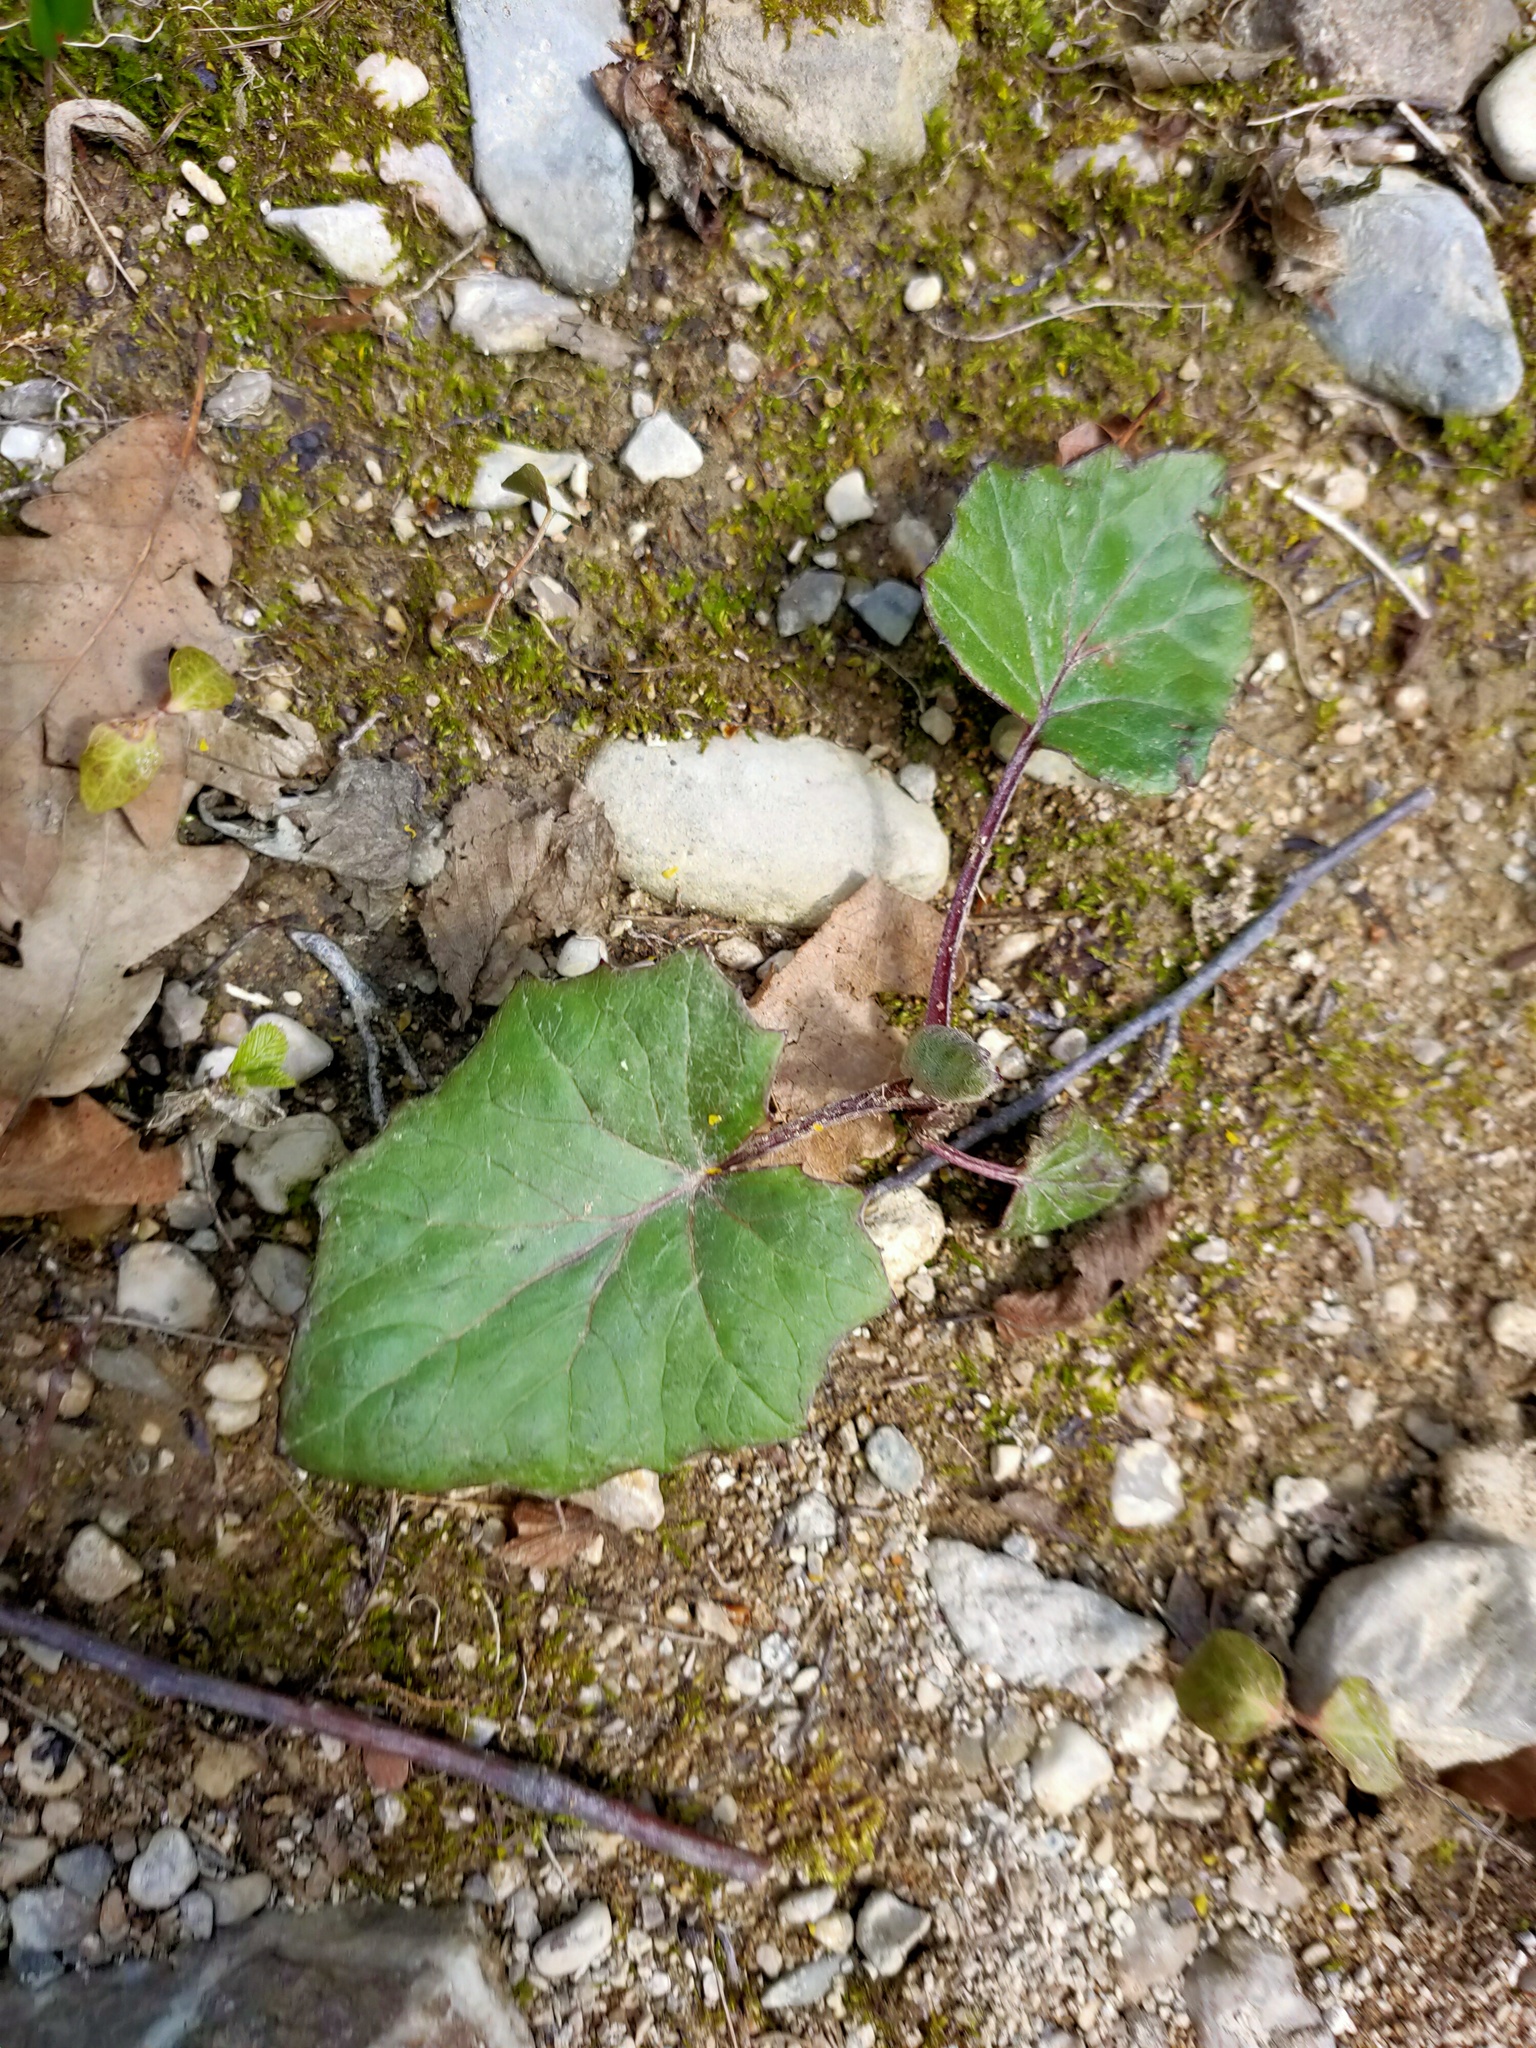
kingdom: Plantae
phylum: Tracheophyta
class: Magnoliopsida
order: Asterales
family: Asteraceae
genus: Tussilago
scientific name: Tussilago farfara
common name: Coltsfoot
